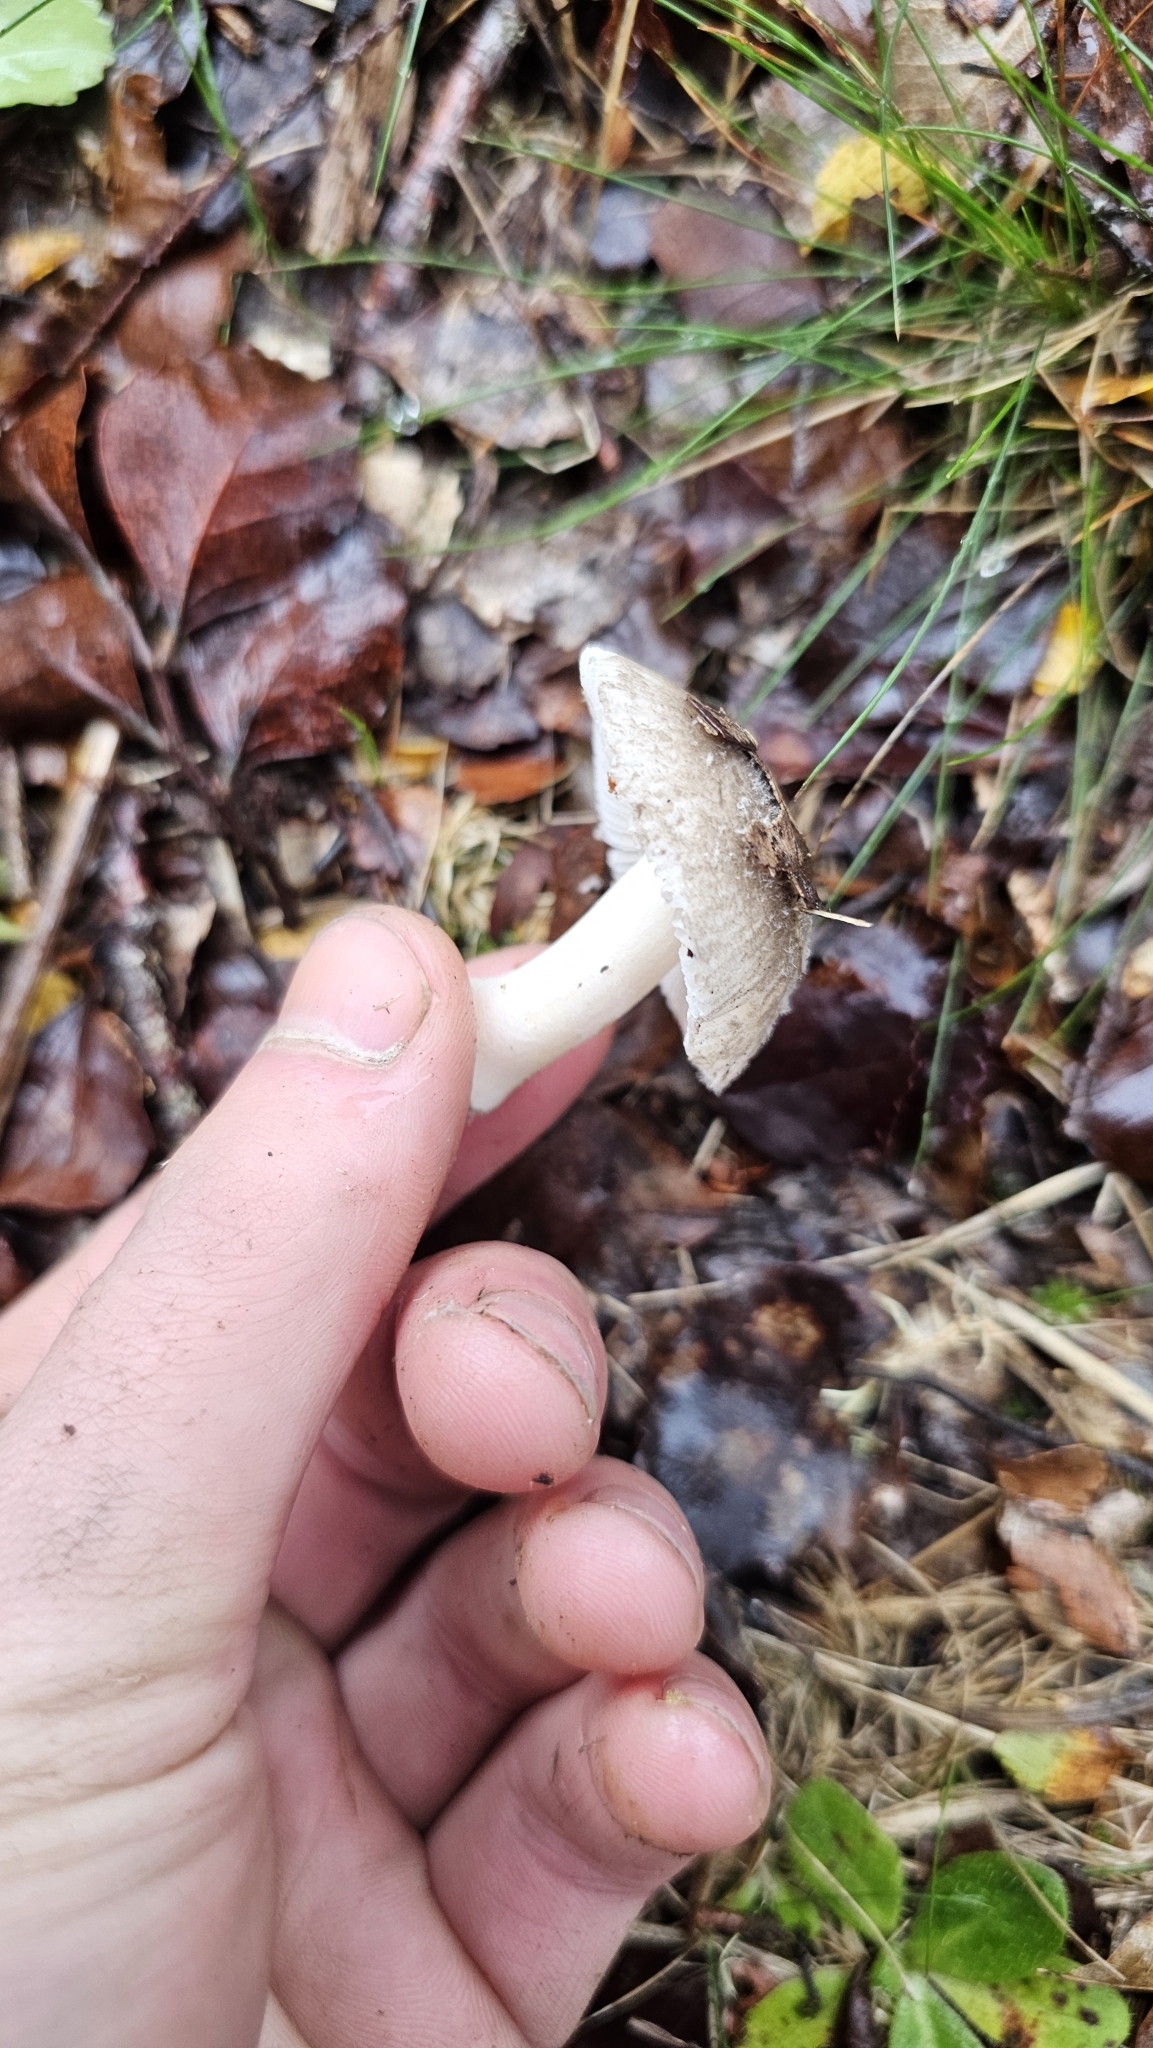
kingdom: Fungi
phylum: Basidiomycota
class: Agaricomycetes
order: Agaricales
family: Amanitaceae
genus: Amanita
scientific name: Amanita nehuta
